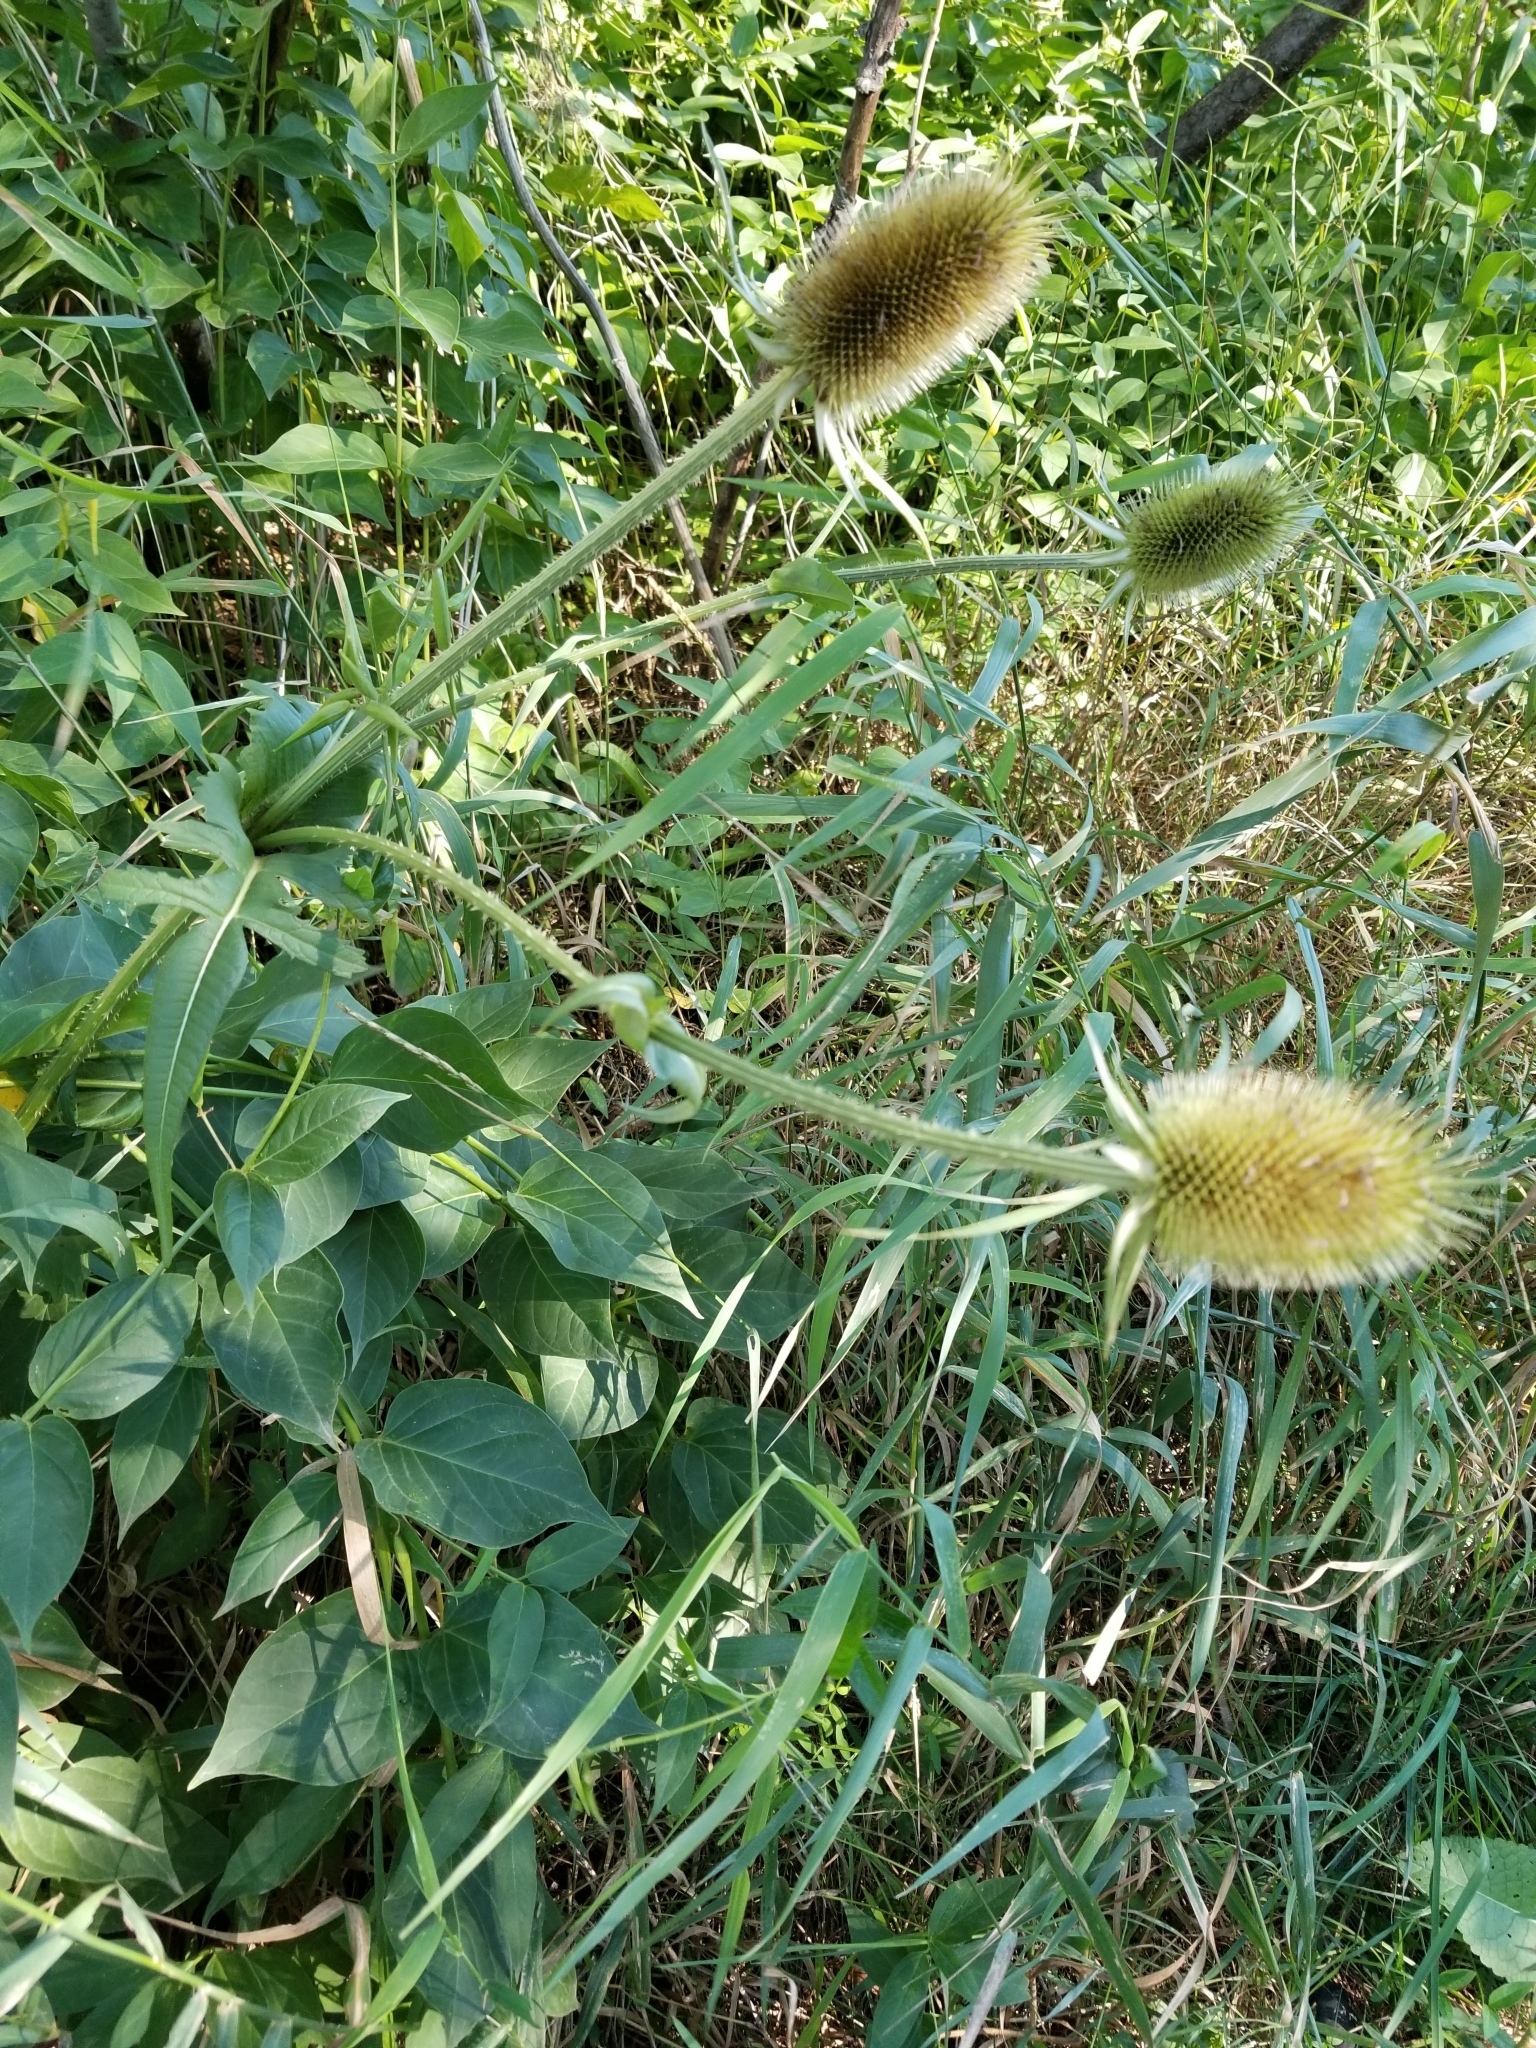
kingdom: Plantae
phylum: Tracheophyta
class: Magnoliopsida
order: Dipsacales
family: Caprifoliaceae
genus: Dipsacus
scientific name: Dipsacus laciniatus
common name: Cut-leaved teasel
